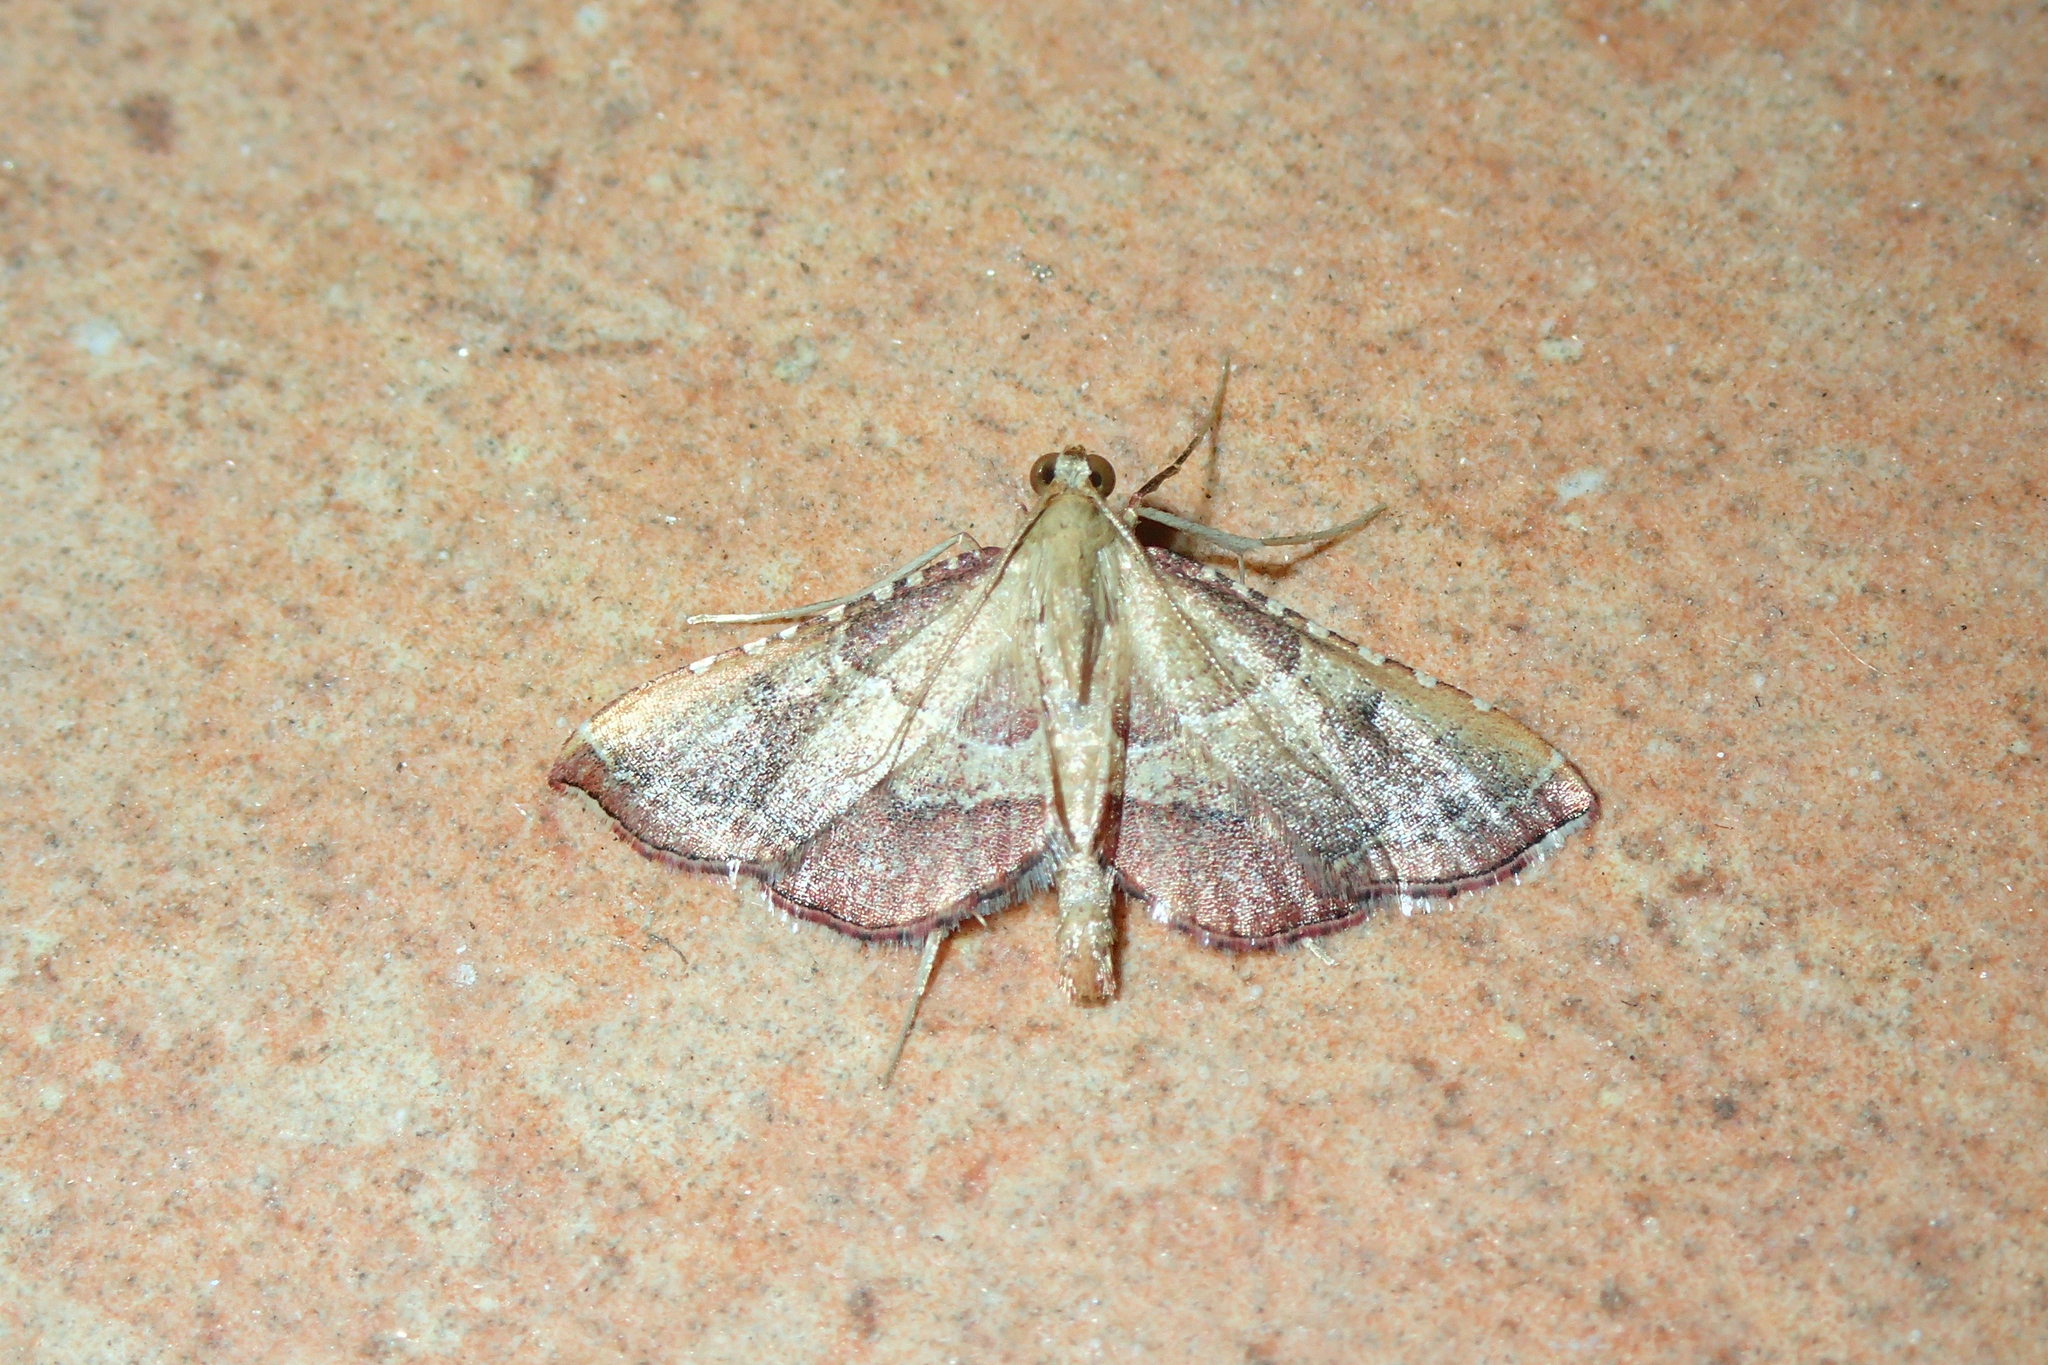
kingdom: Animalia
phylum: Arthropoda
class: Insecta
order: Lepidoptera
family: Pyralidae
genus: Endotricha
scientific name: Endotricha flammealis
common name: Rosy tabby
